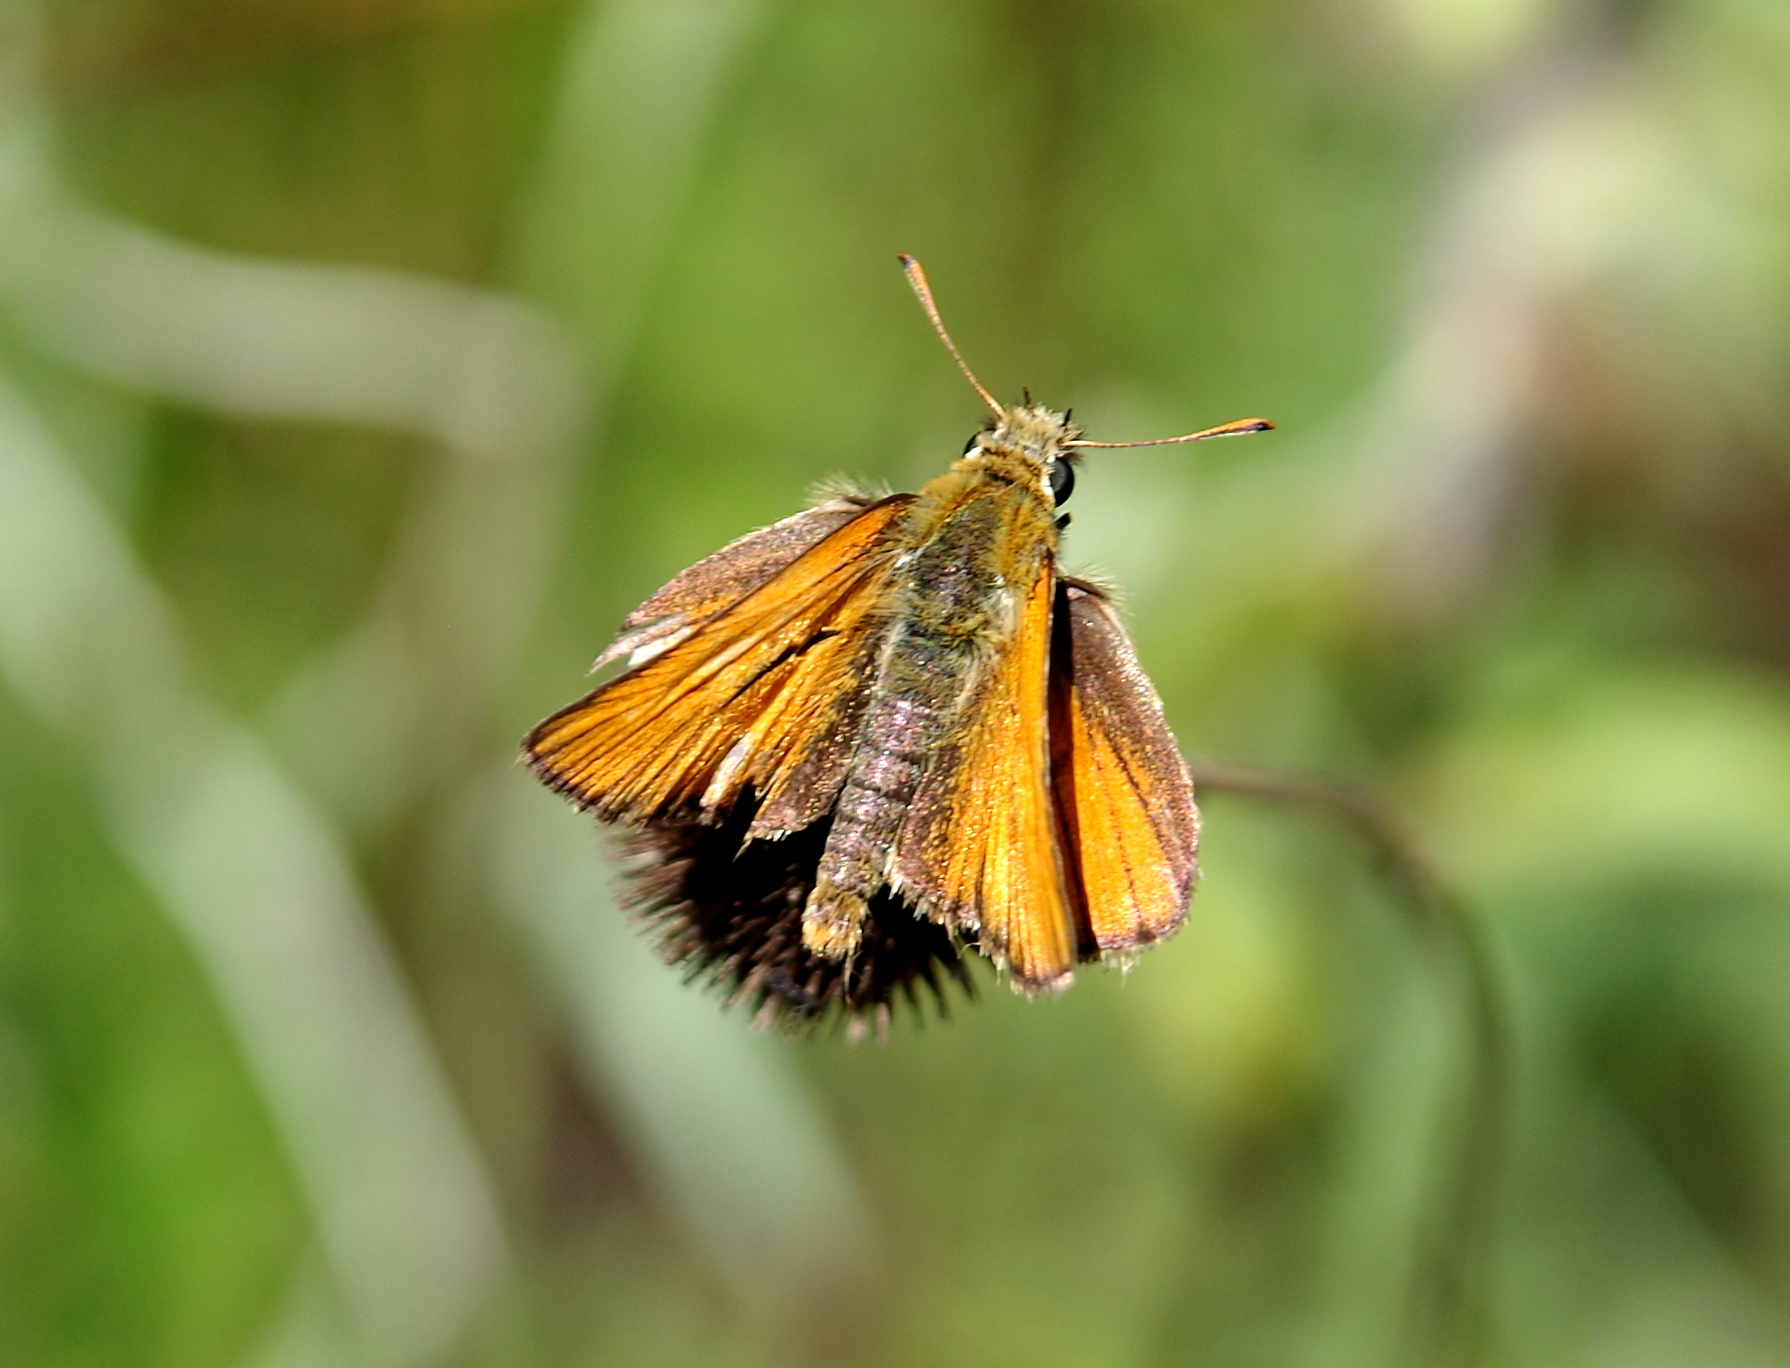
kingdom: Animalia
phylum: Arthropoda
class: Insecta
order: Lepidoptera
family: Hesperiidae
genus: Thymelicus
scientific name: Thymelicus sylvestris
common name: Small skipper
